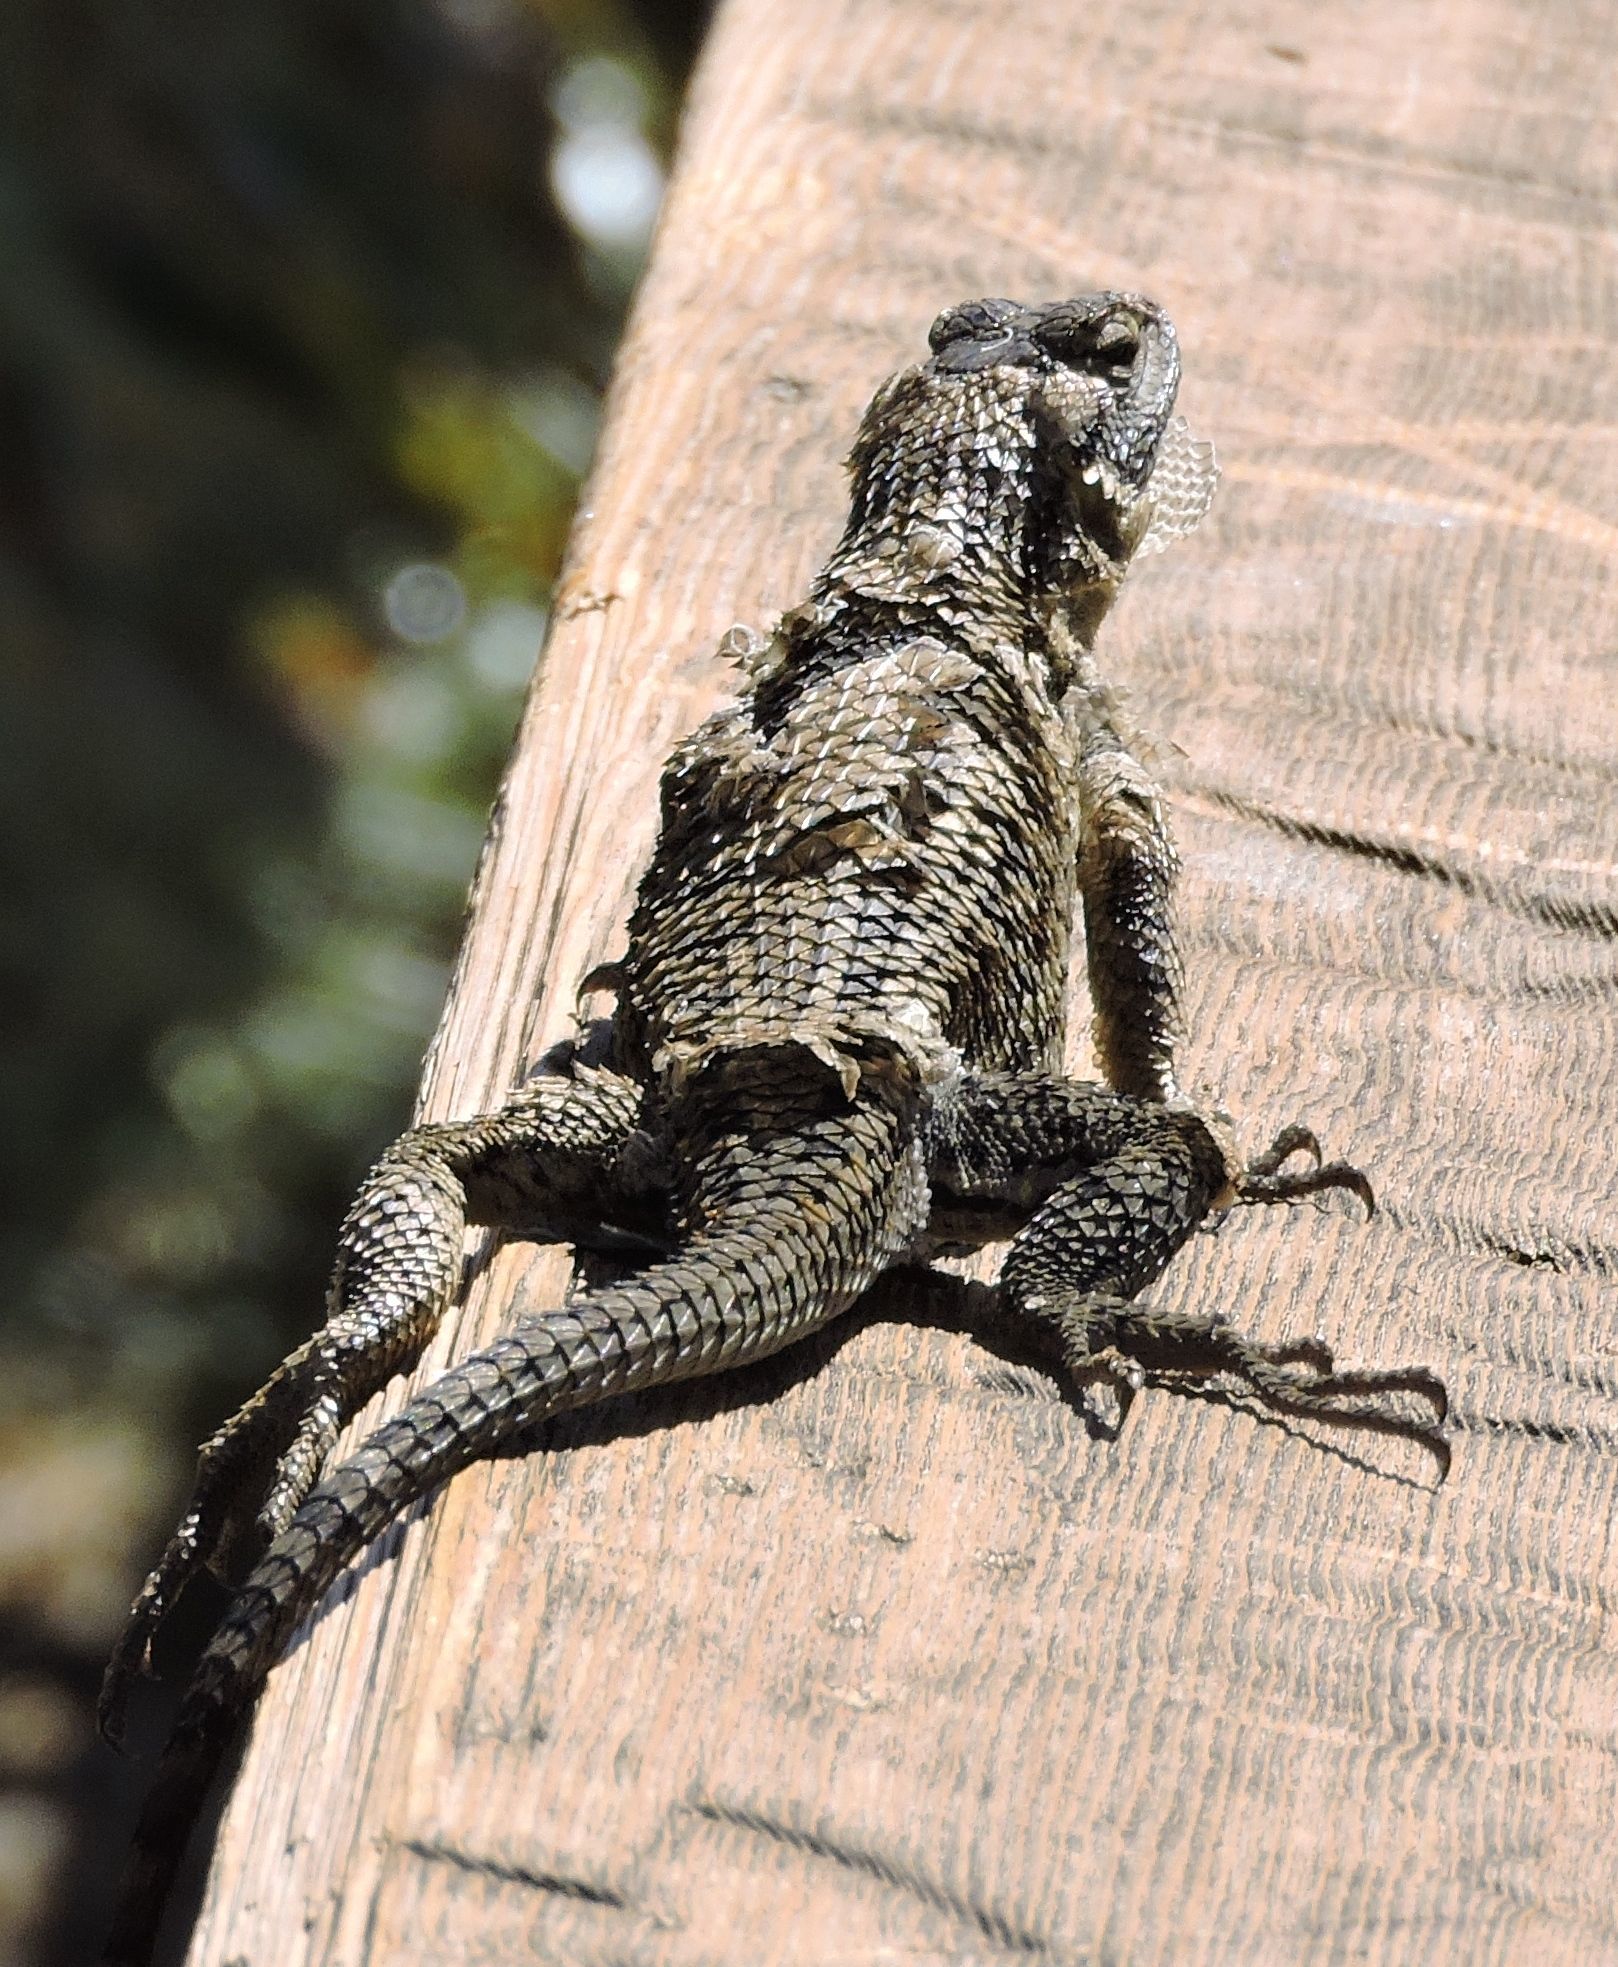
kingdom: Animalia
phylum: Chordata
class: Squamata
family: Phrynosomatidae
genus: Sceloporus
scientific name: Sceloporus occidentalis
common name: Western fence lizard
